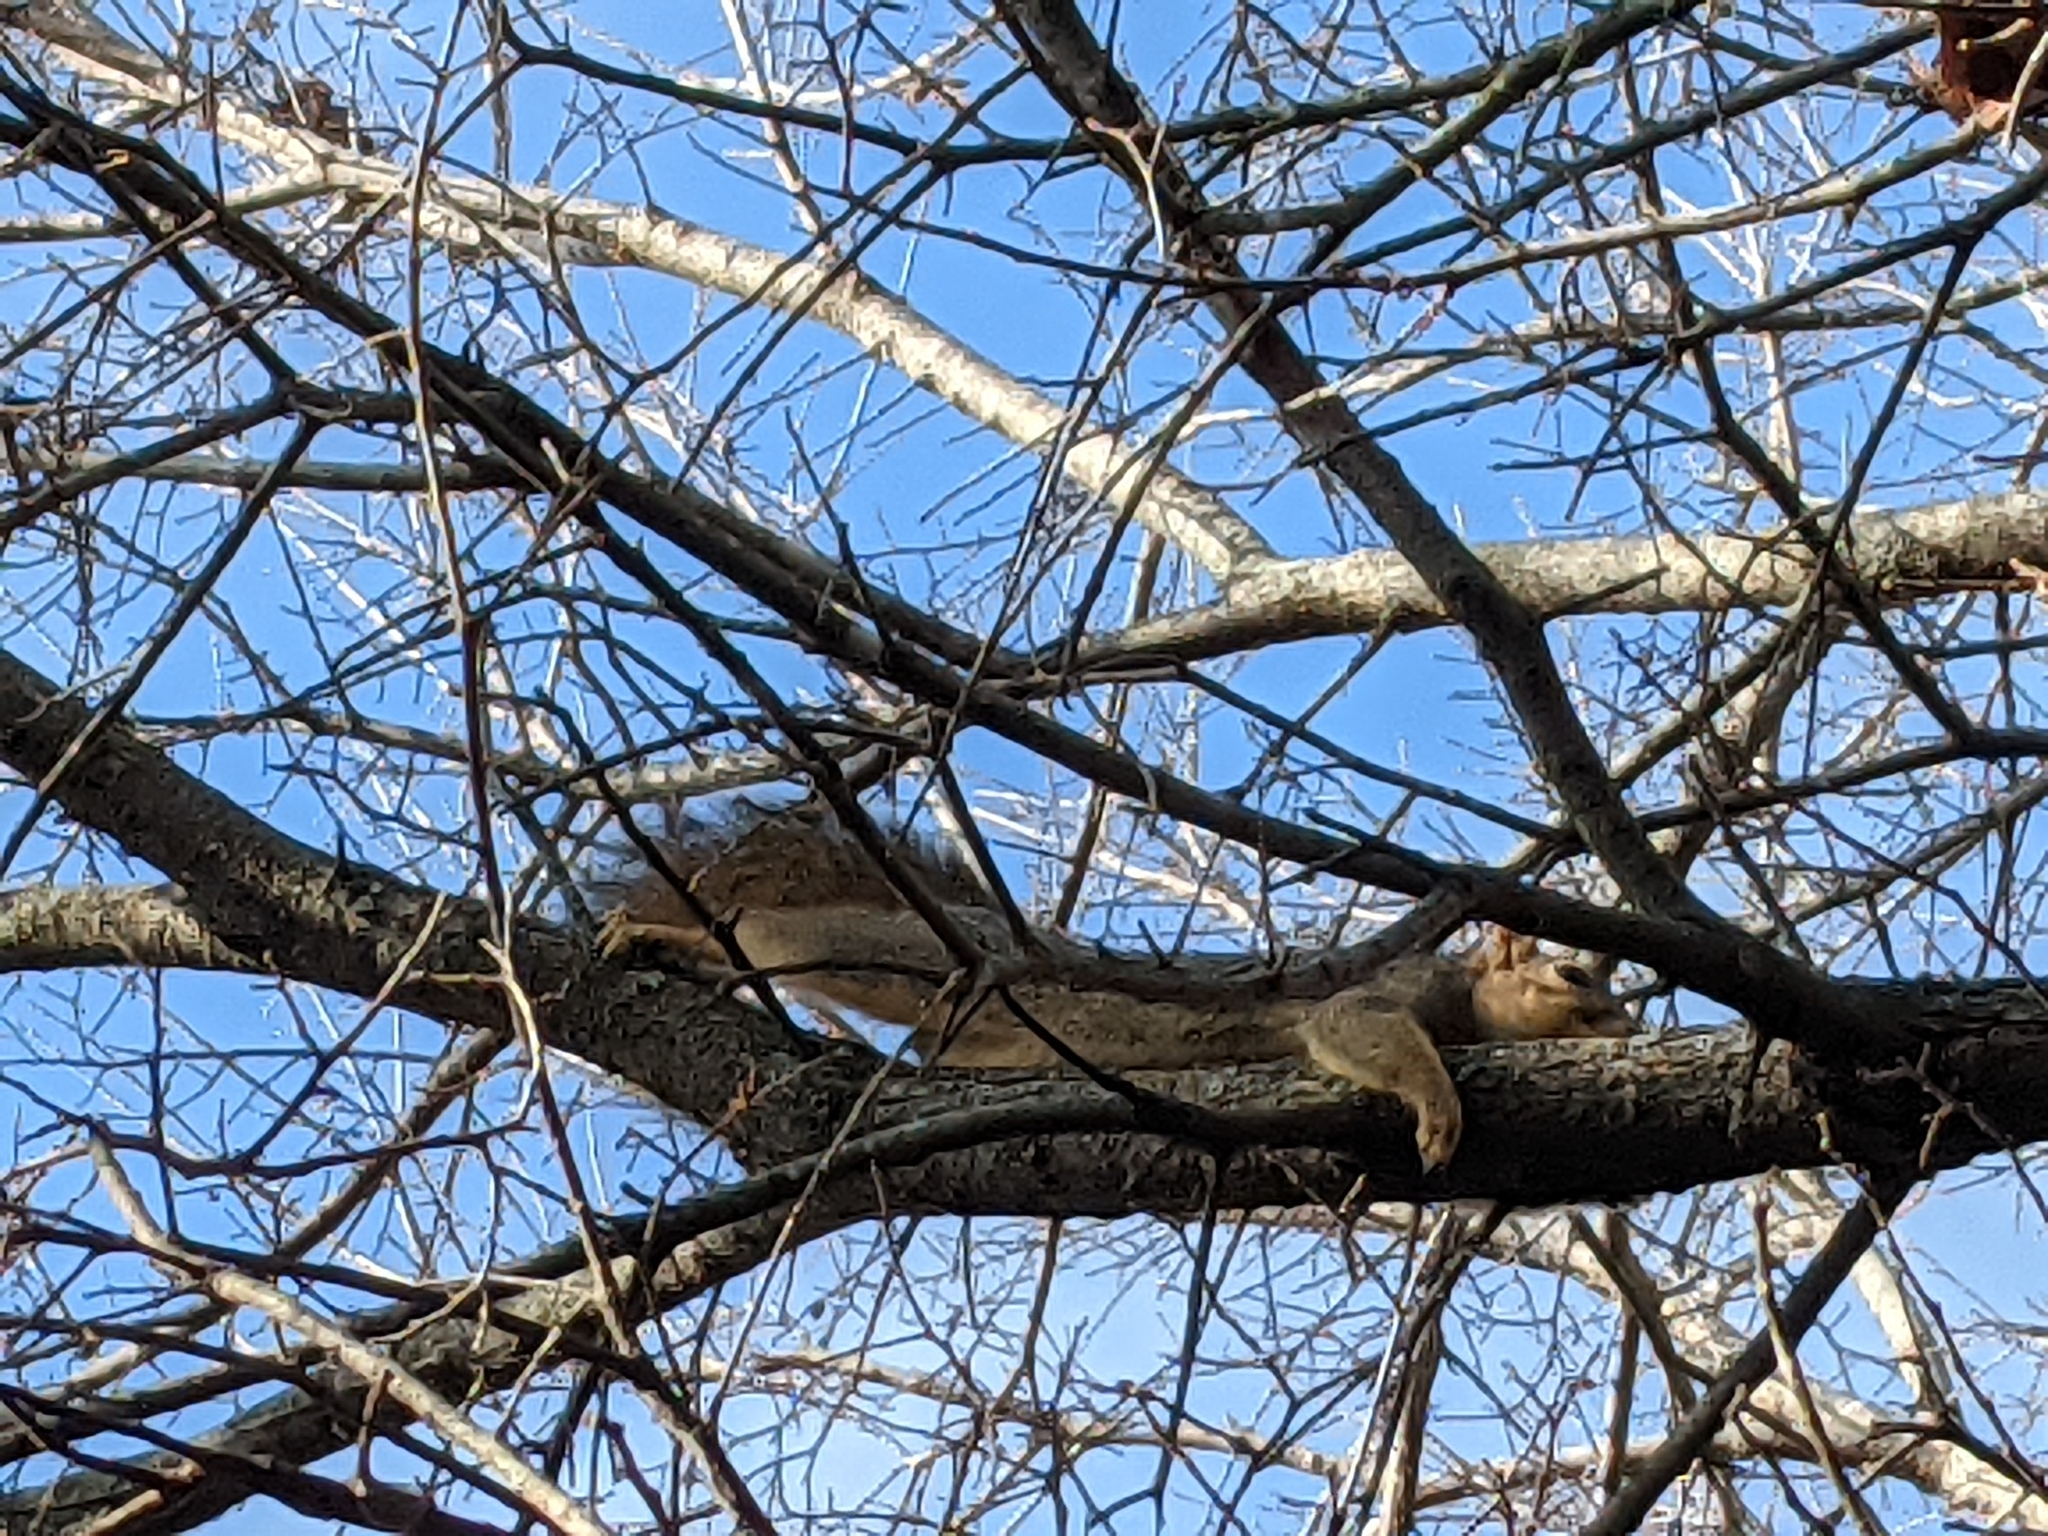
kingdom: Animalia
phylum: Chordata
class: Mammalia
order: Rodentia
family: Sciuridae
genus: Sciurus
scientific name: Sciurus niger
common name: Fox squirrel
